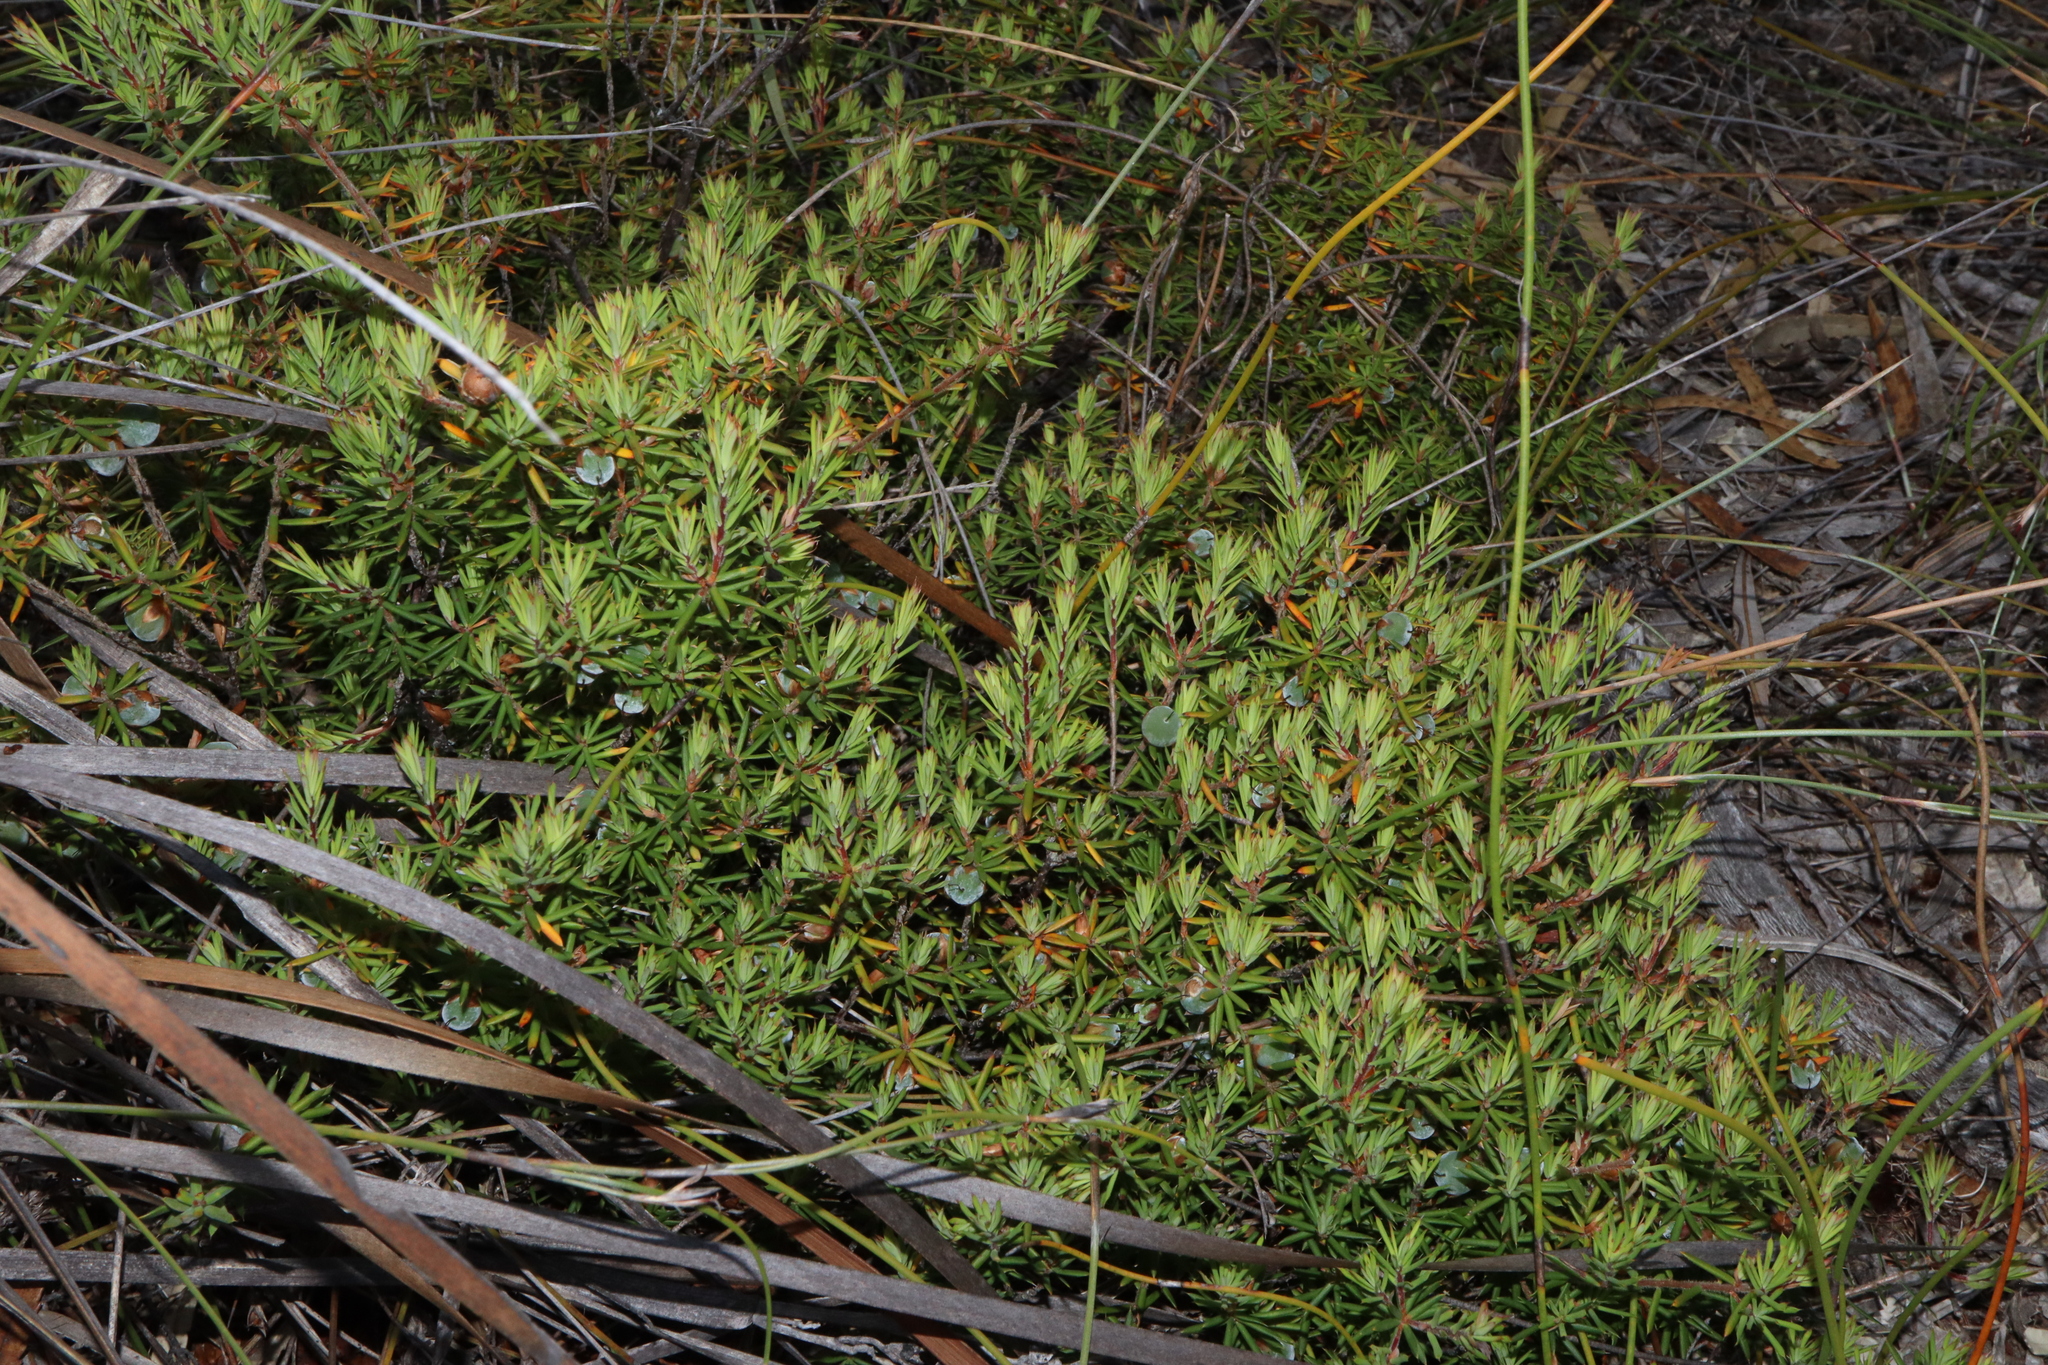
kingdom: Plantae
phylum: Tracheophyta
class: Magnoliopsida
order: Ericales
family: Ericaceae
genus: Brachyloma
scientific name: Brachyloma baxteri
